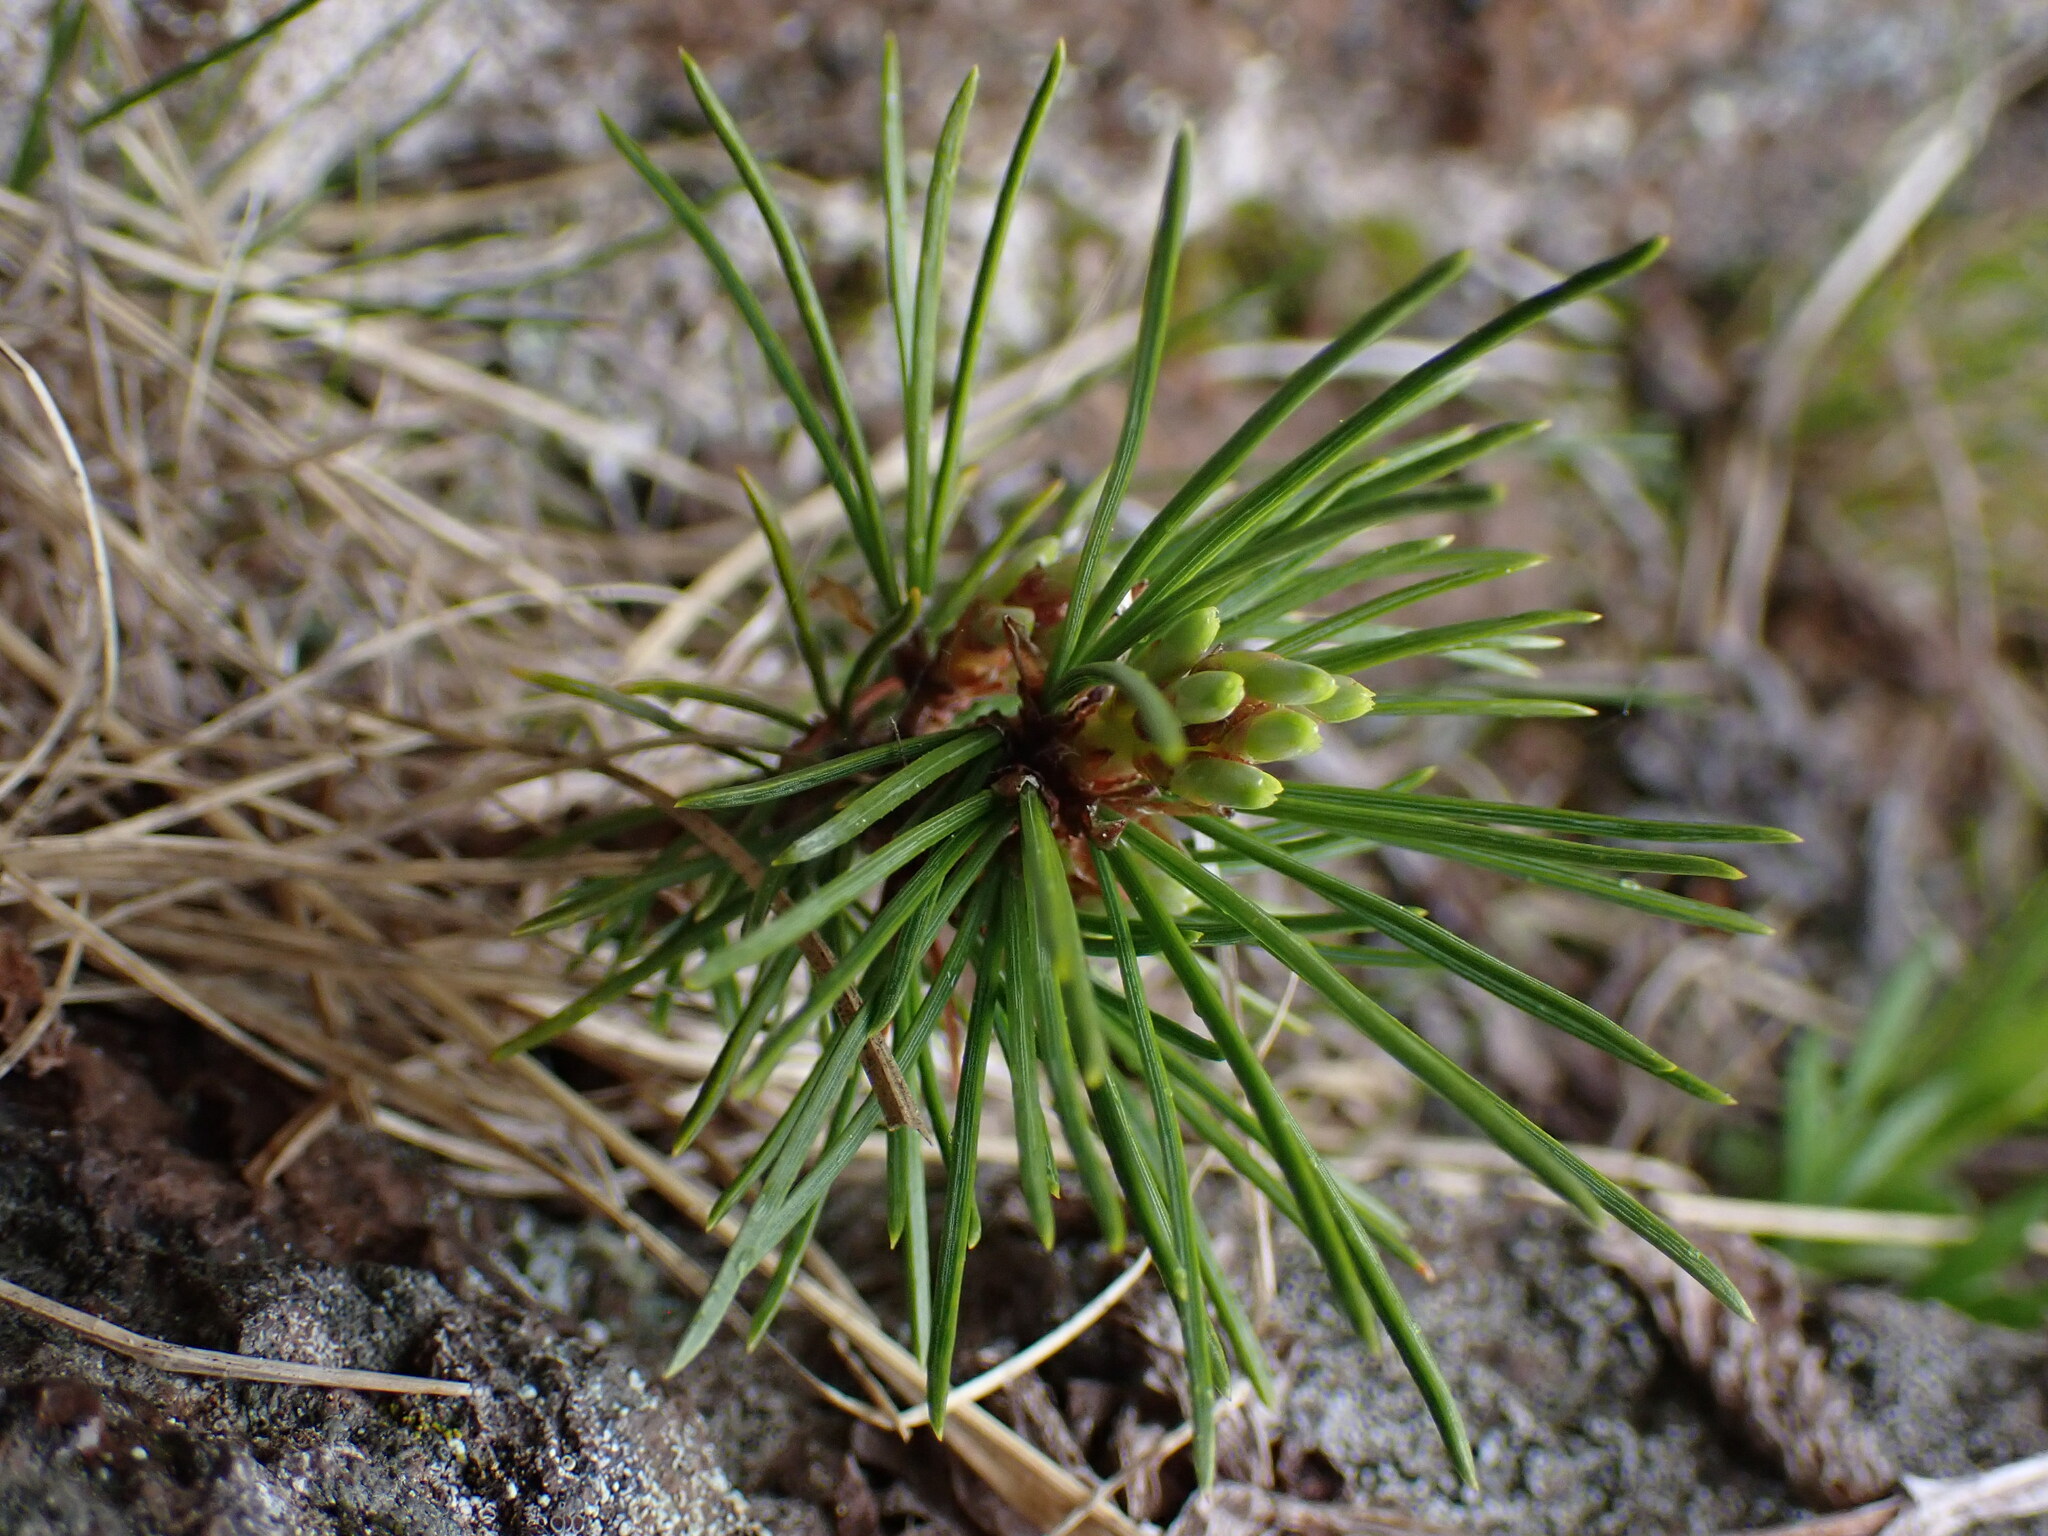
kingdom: Plantae
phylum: Tracheophyta
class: Pinopsida
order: Pinales
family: Pinaceae
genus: Pinus
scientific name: Pinus contorta
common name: Lodgepole pine
